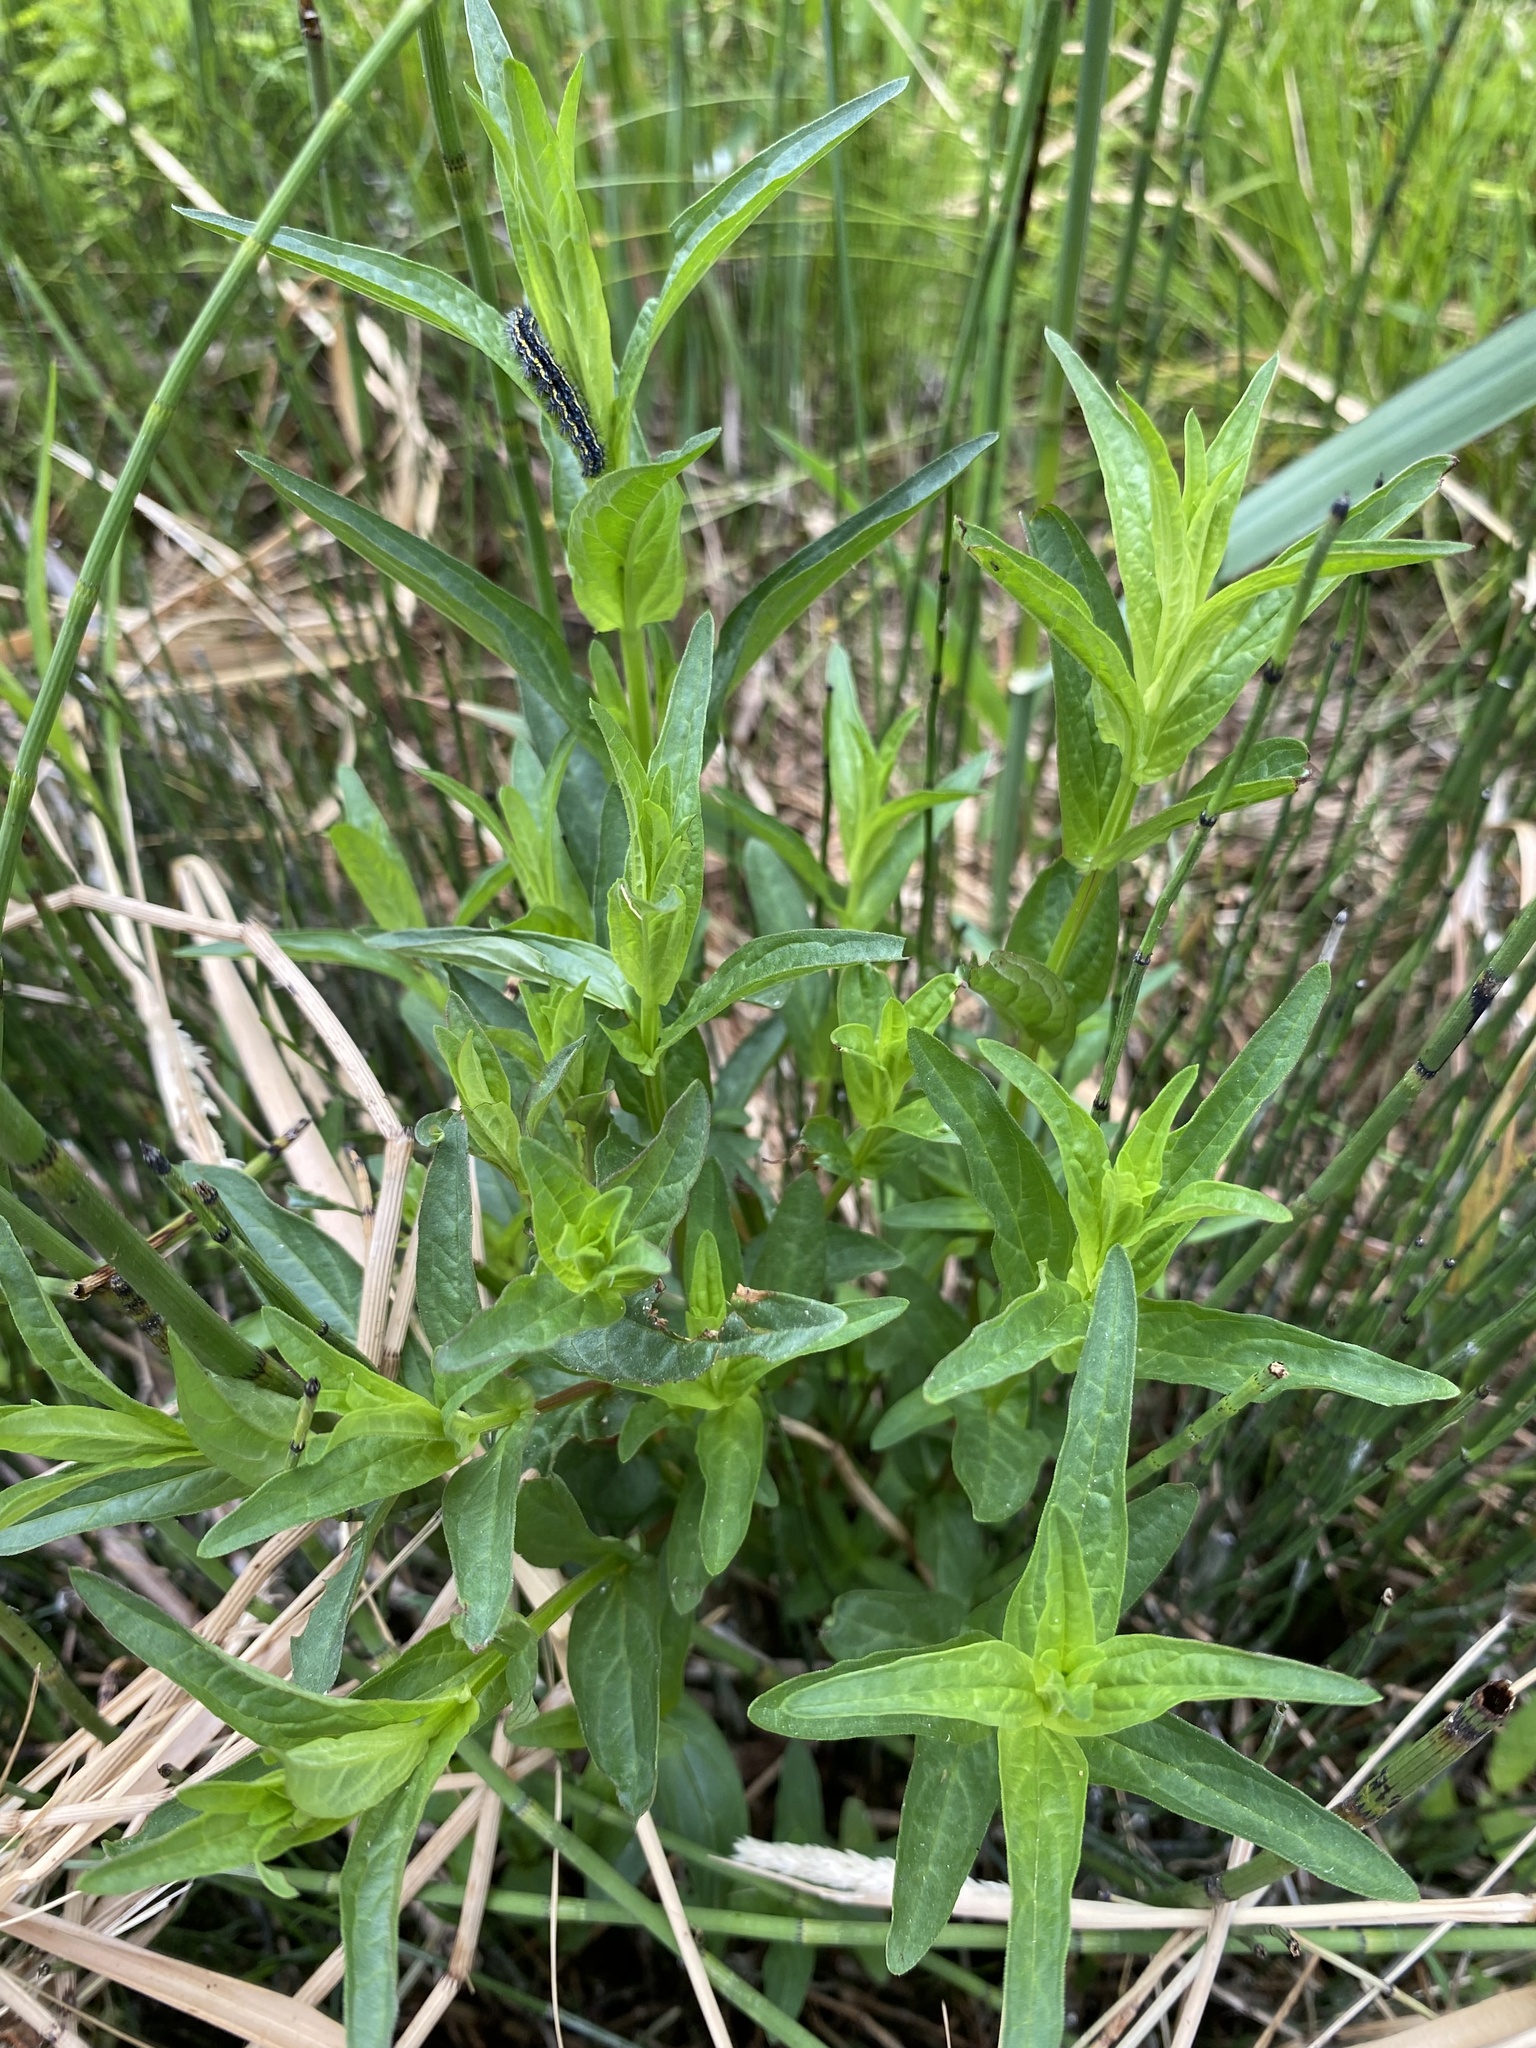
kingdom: Plantae
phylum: Tracheophyta
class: Magnoliopsida
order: Myrtales
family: Lythraceae
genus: Lythrum
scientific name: Lythrum salicaria
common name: Purple loosestrife
